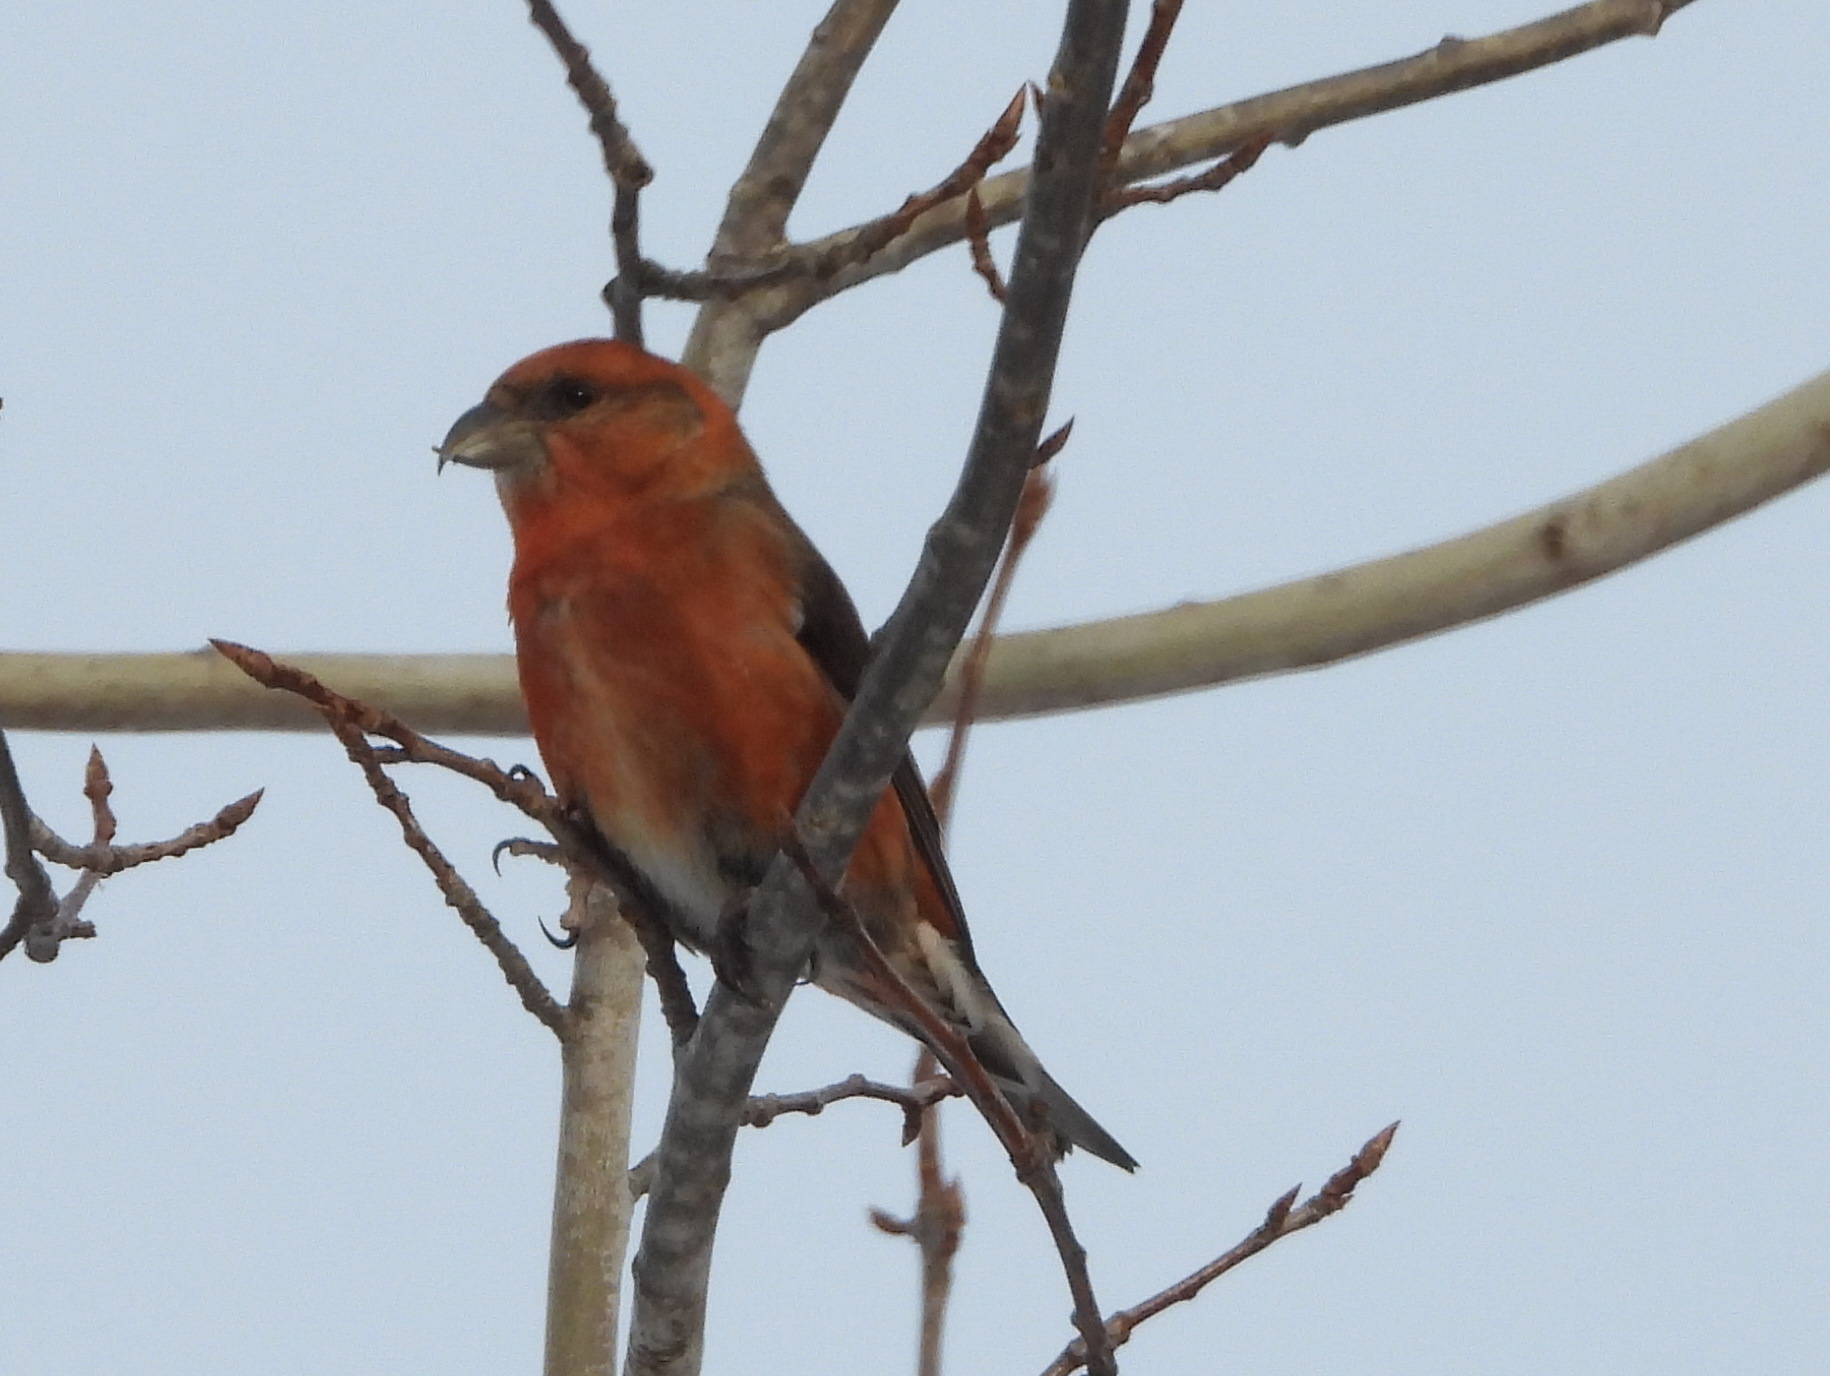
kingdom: Animalia
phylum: Chordata
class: Aves
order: Passeriformes
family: Fringillidae
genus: Loxia
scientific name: Loxia curvirostra
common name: Red crossbill
